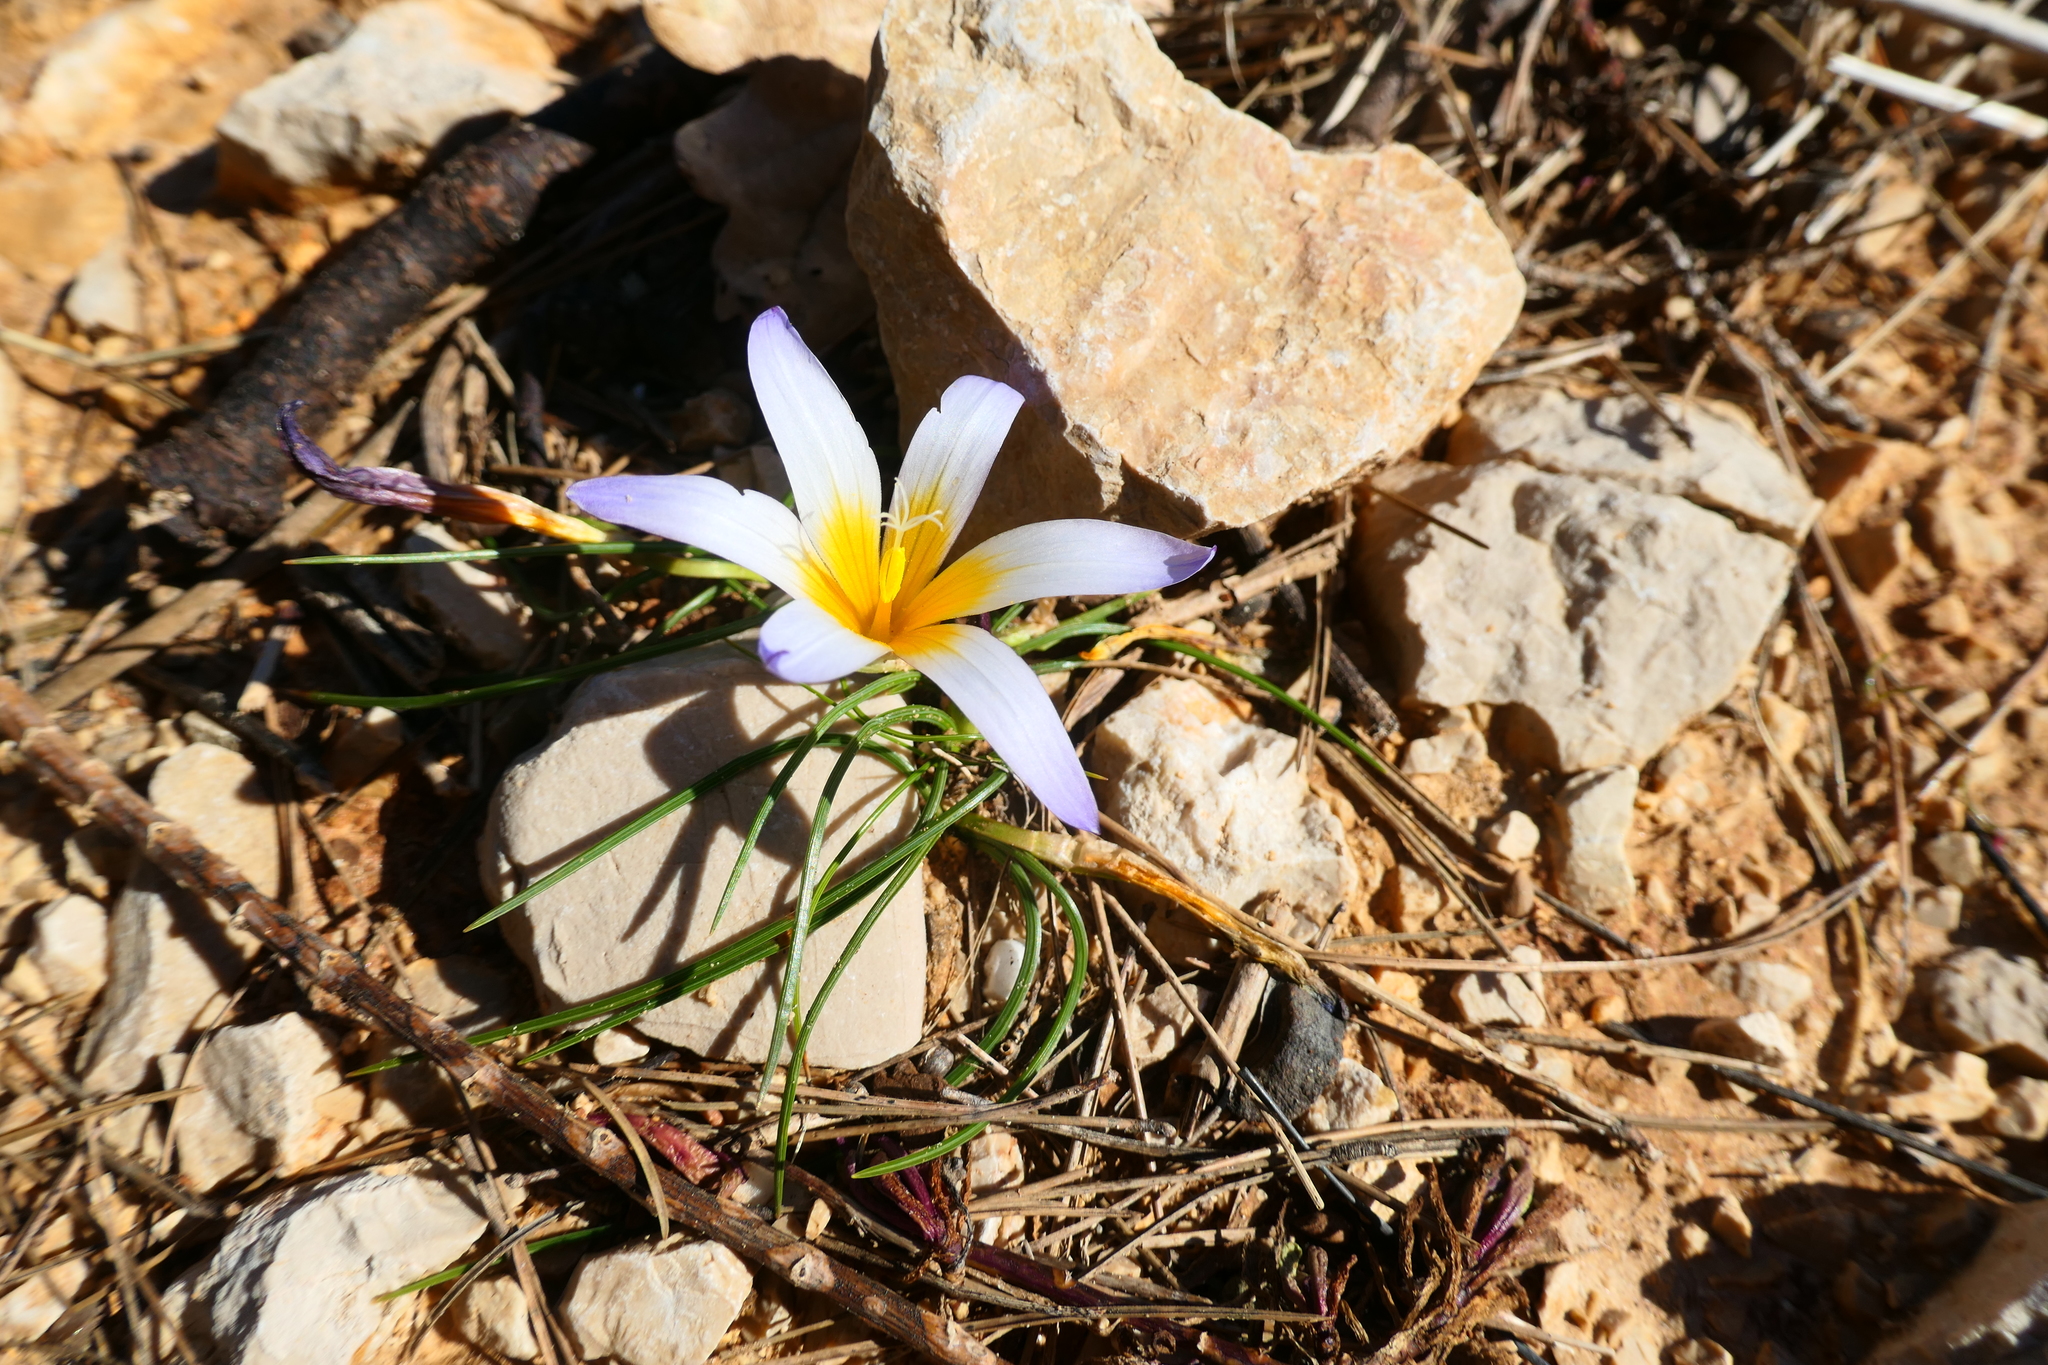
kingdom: Plantae
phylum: Tracheophyta
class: Liliopsida
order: Asparagales
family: Iridaceae
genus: Romulea
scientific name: Romulea bulbocodium
